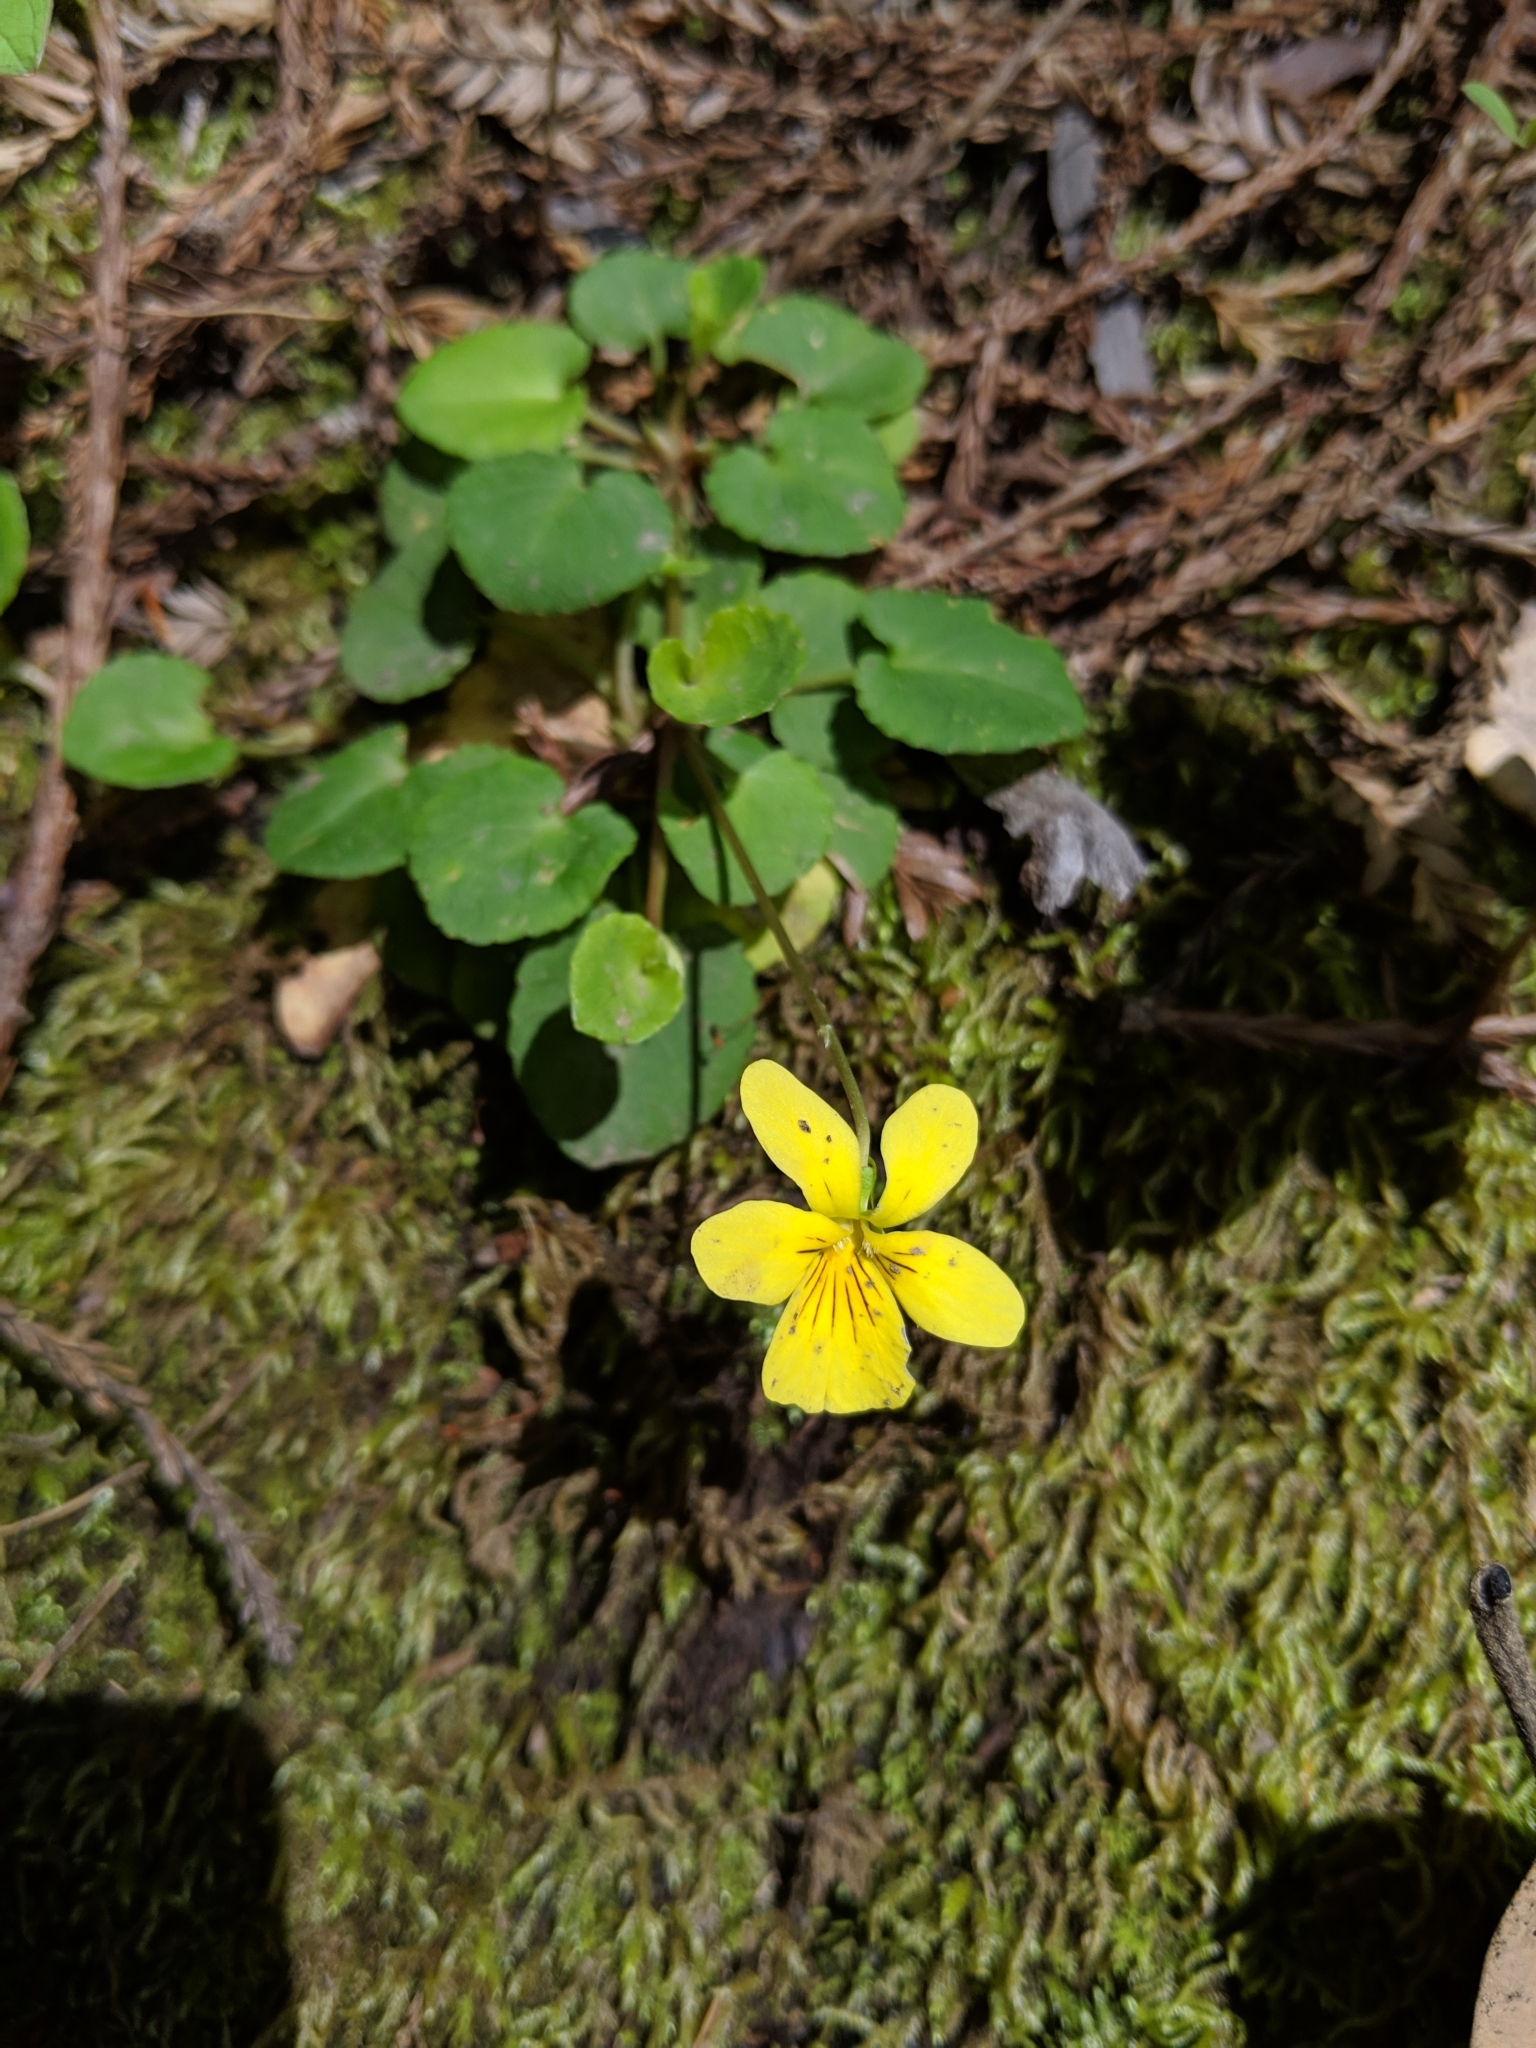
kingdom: Plantae
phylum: Tracheophyta
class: Magnoliopsida
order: Malpighiales
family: Violaceae
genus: Viola
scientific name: Viola sempervirens
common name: Evergreen violet
